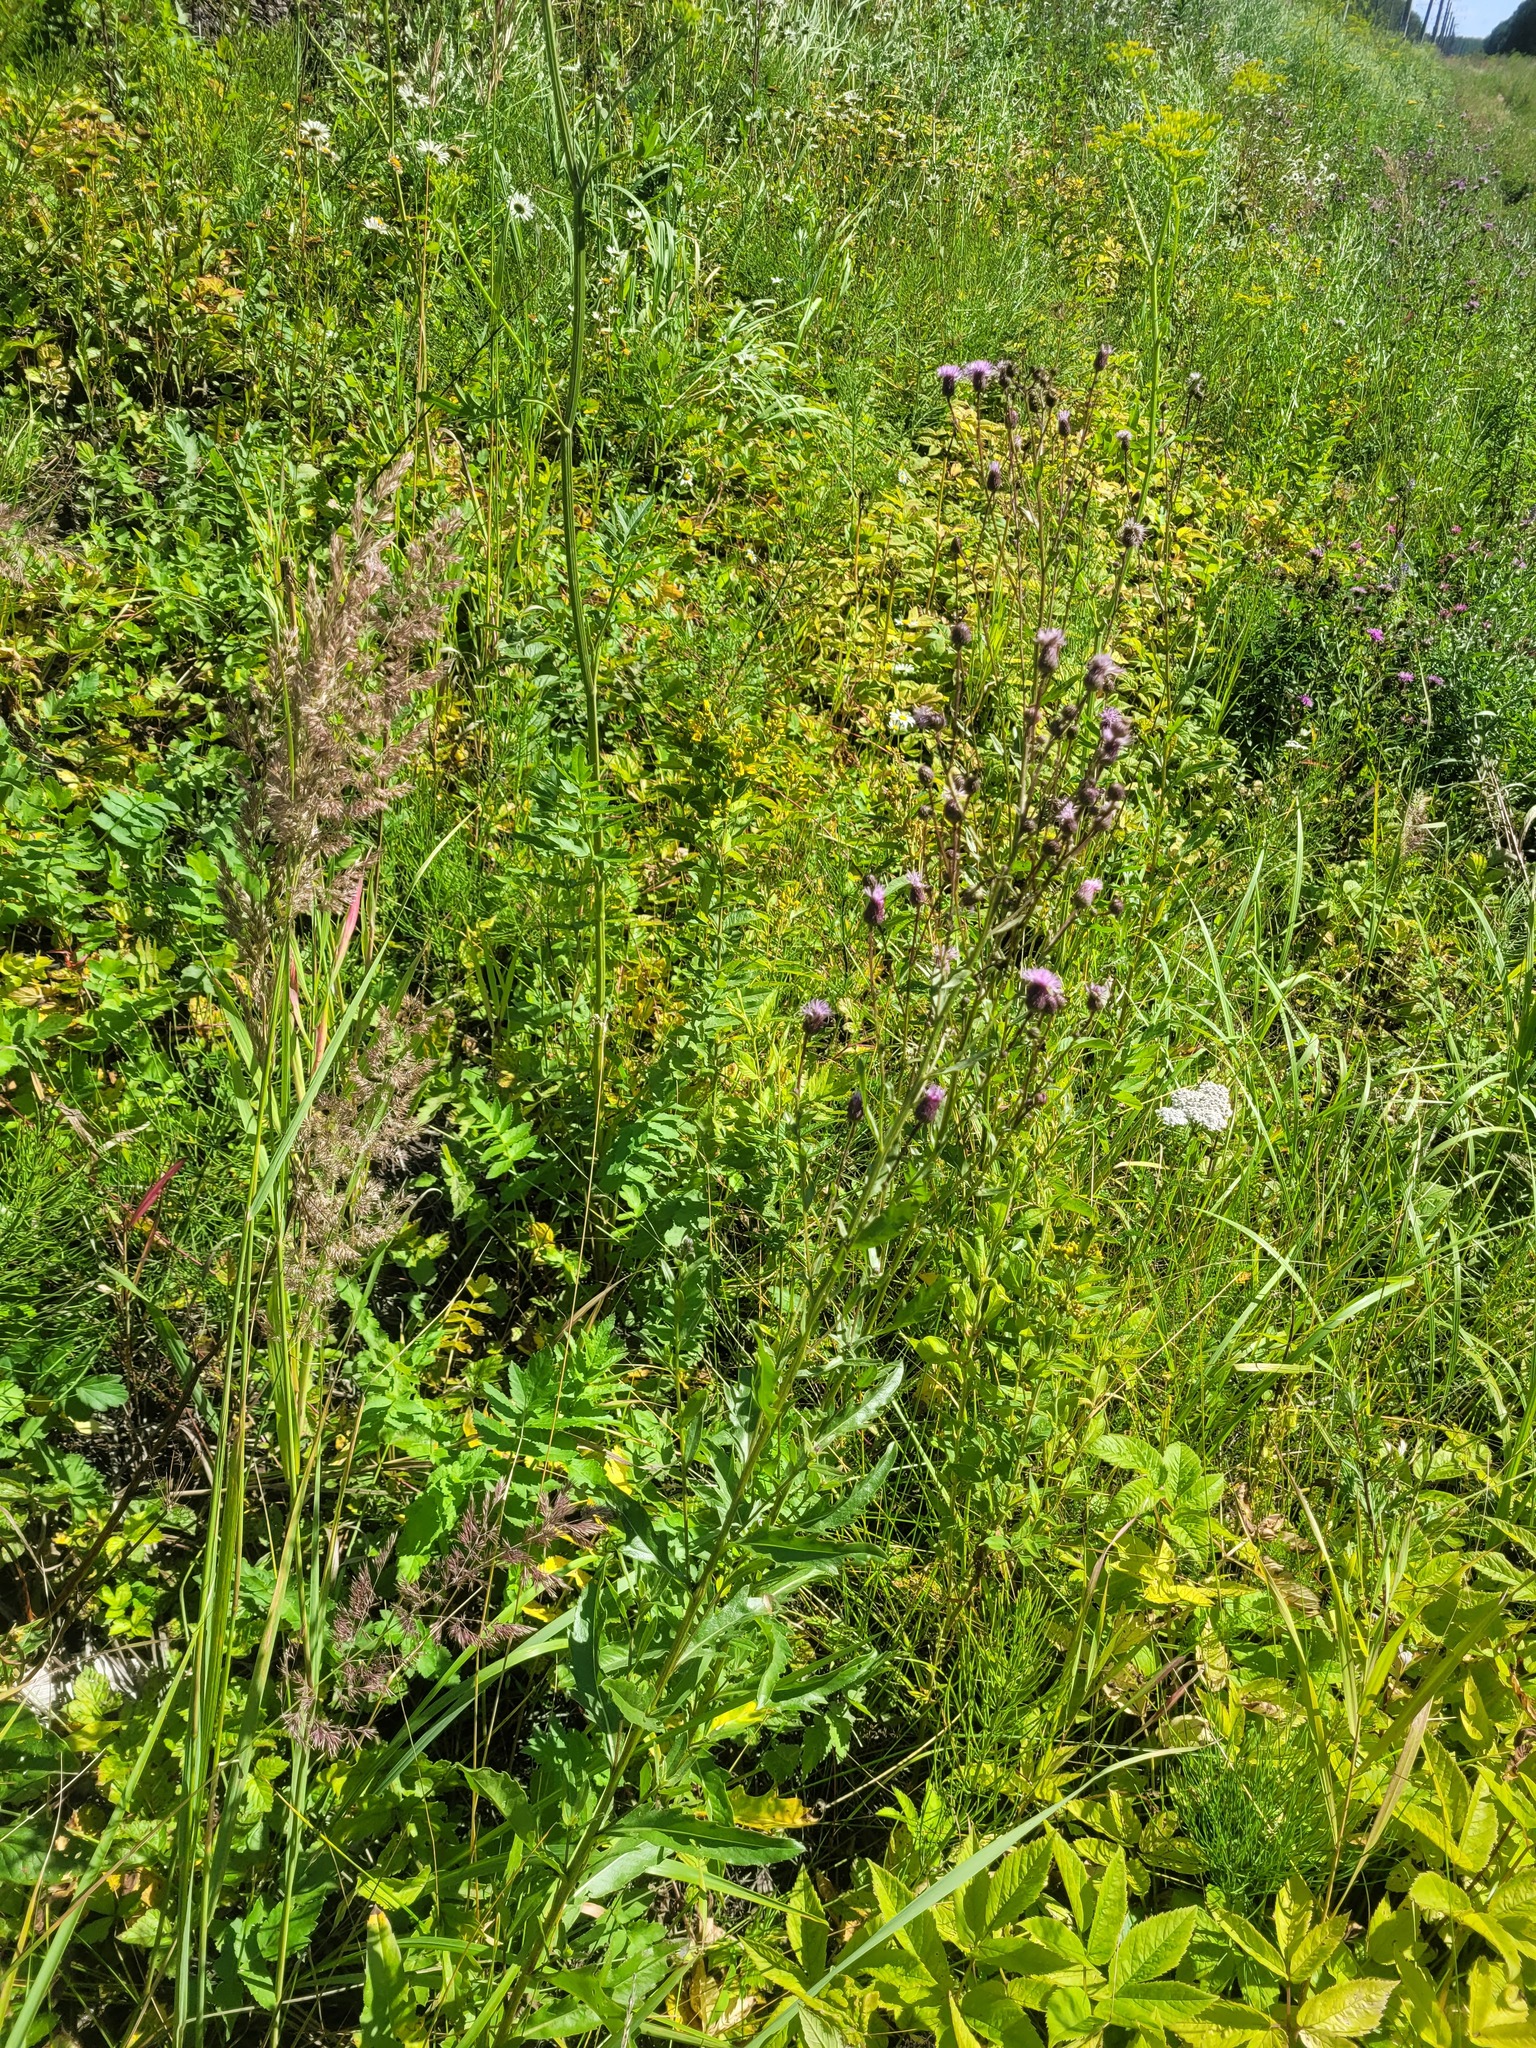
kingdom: Plantae
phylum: Tracheophyta
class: Magnoliopsida
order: Asterales
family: Asteraceae
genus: Cirsium
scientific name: Cirsium arvense
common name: Creeping thistle
